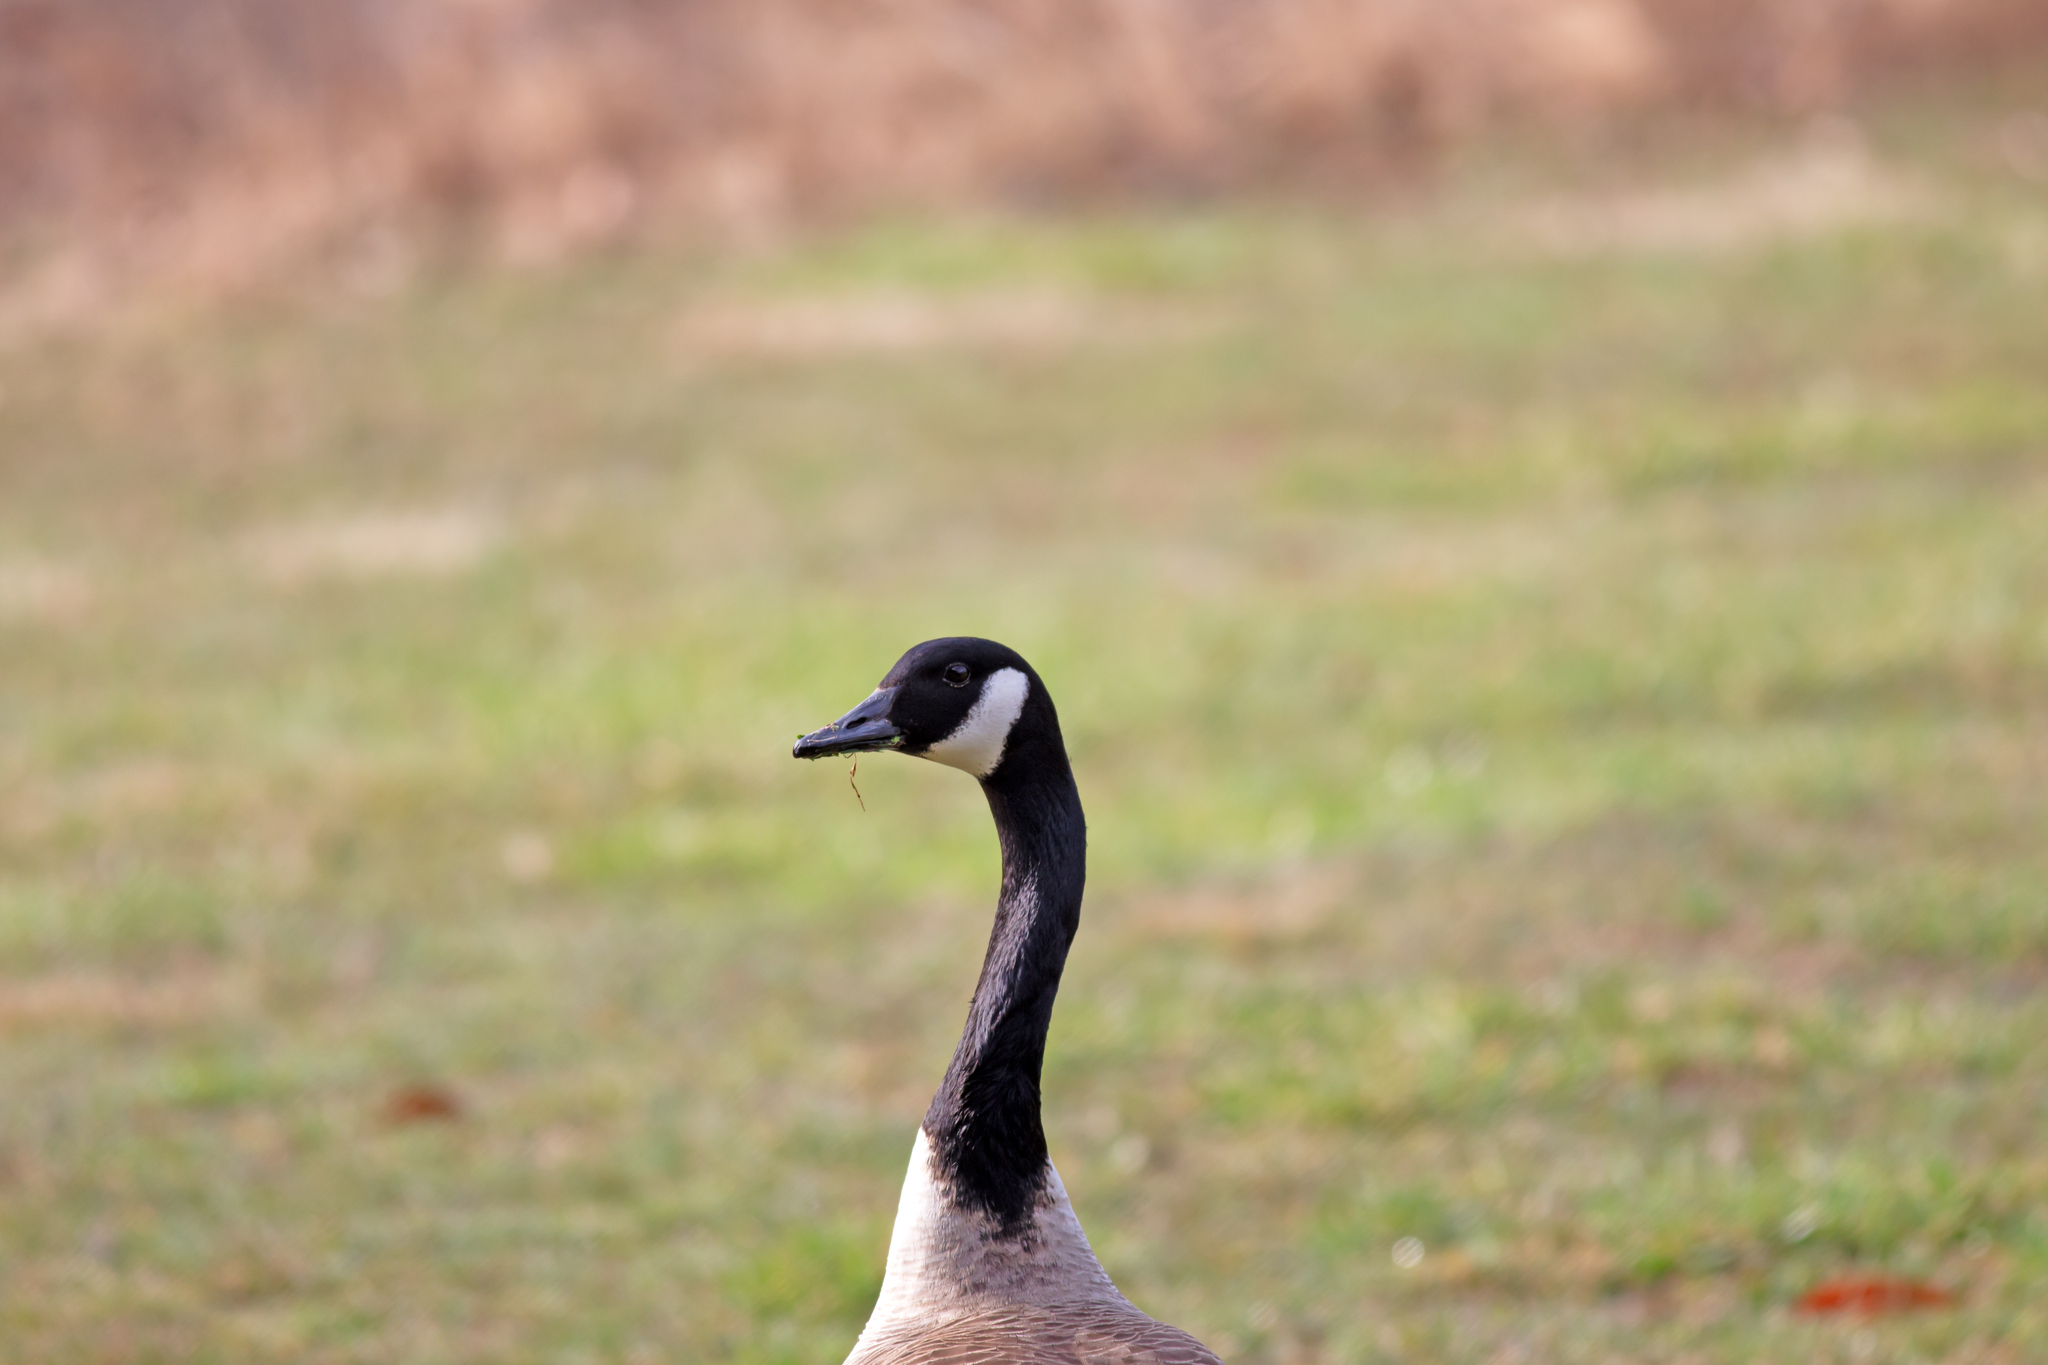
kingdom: Animalia
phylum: Chordata
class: Aves
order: Anseriformes
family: Anatidae
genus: Branta
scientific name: Branta canadensis
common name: Canada goose
